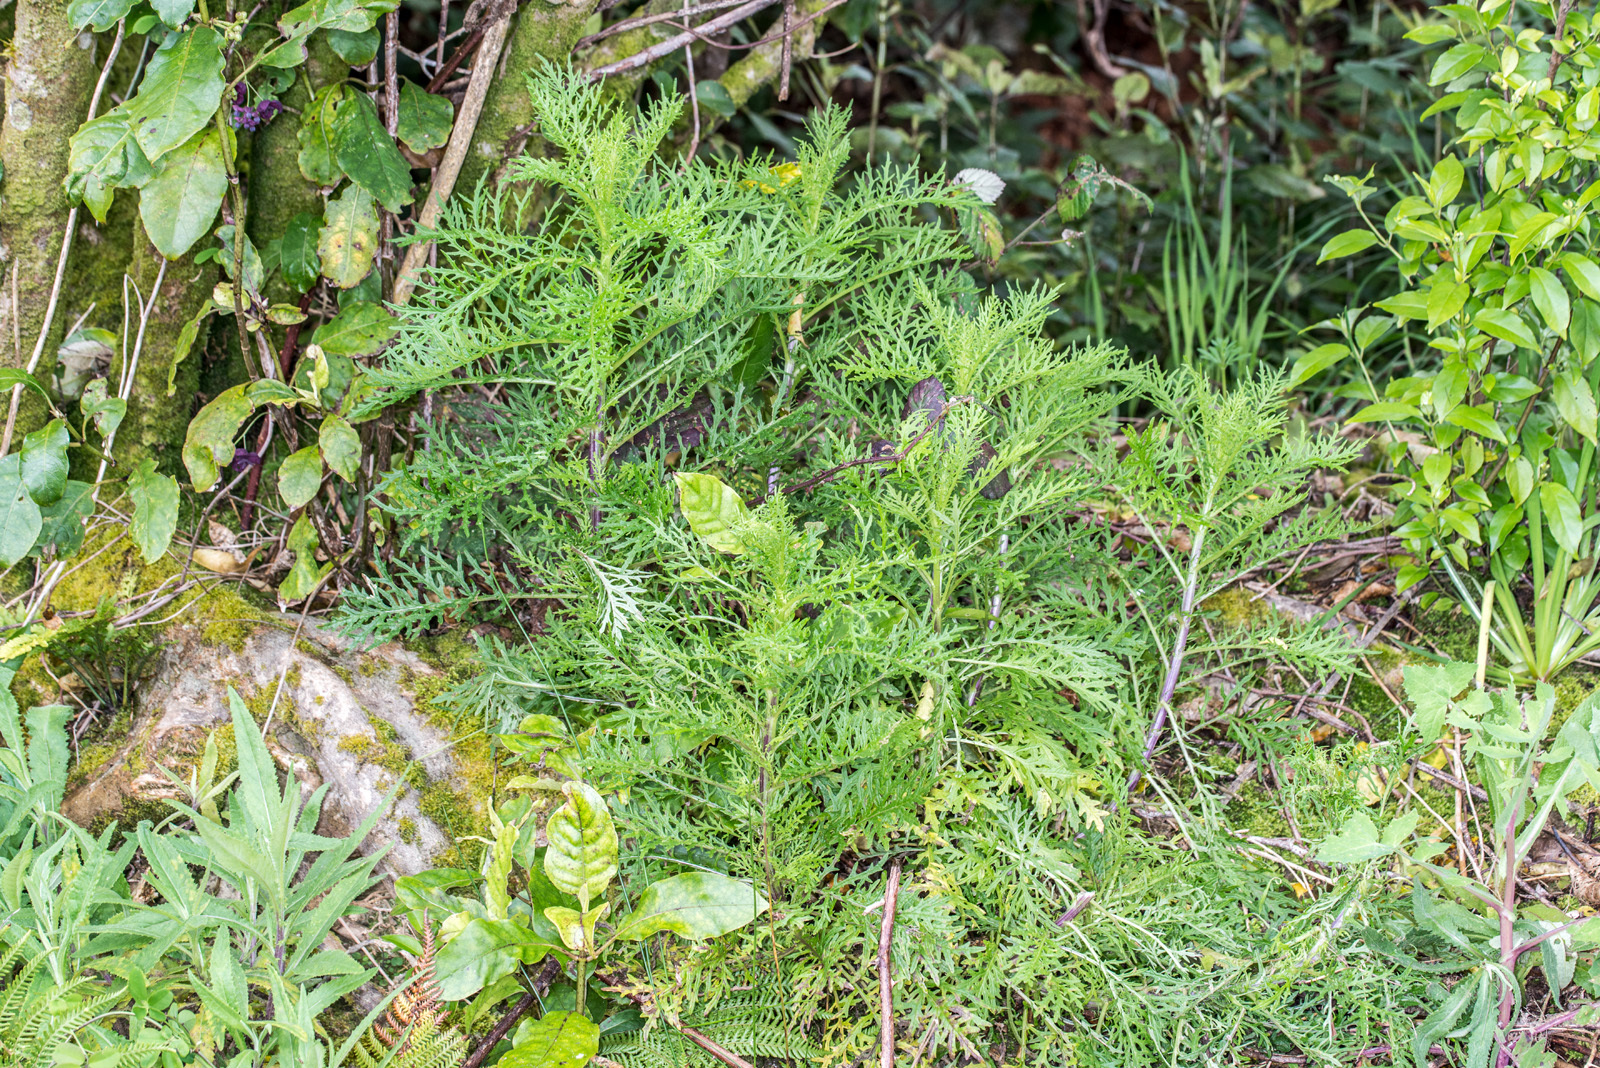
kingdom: Plantae
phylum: Tracheophyta
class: Magnoliopsida
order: Asterales
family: Asteraceae
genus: Senecio
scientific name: Senecio bipinnatisectus
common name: Australian fireweed
